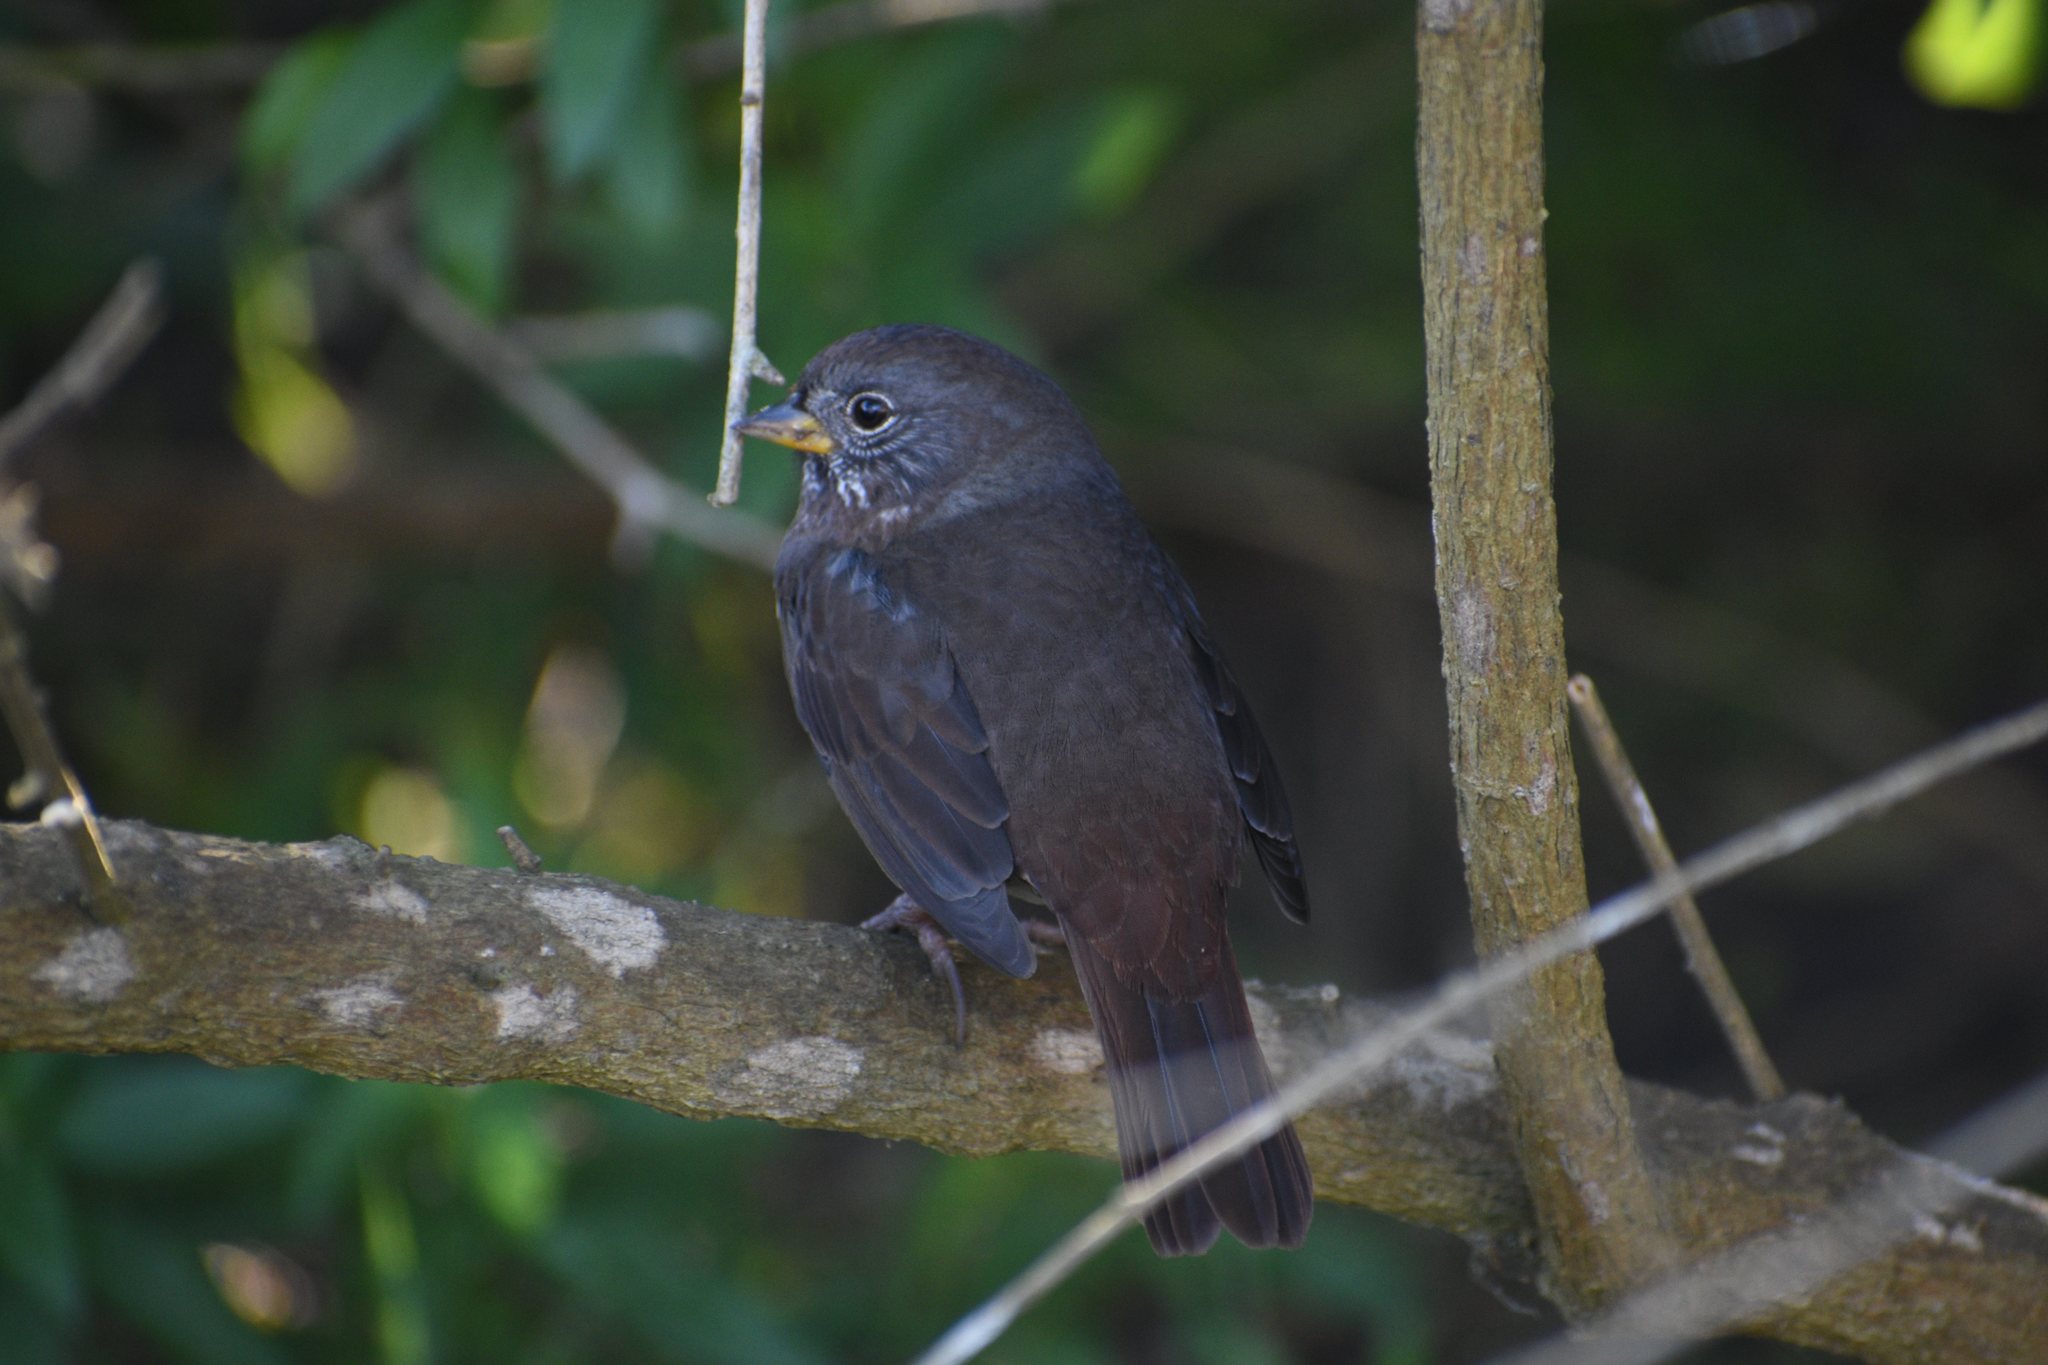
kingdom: Animalia
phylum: Chordata
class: Aves
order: Passeriformes
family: Passerellidae
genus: Passerella
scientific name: Passerella iliaca
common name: Fox sparrow
